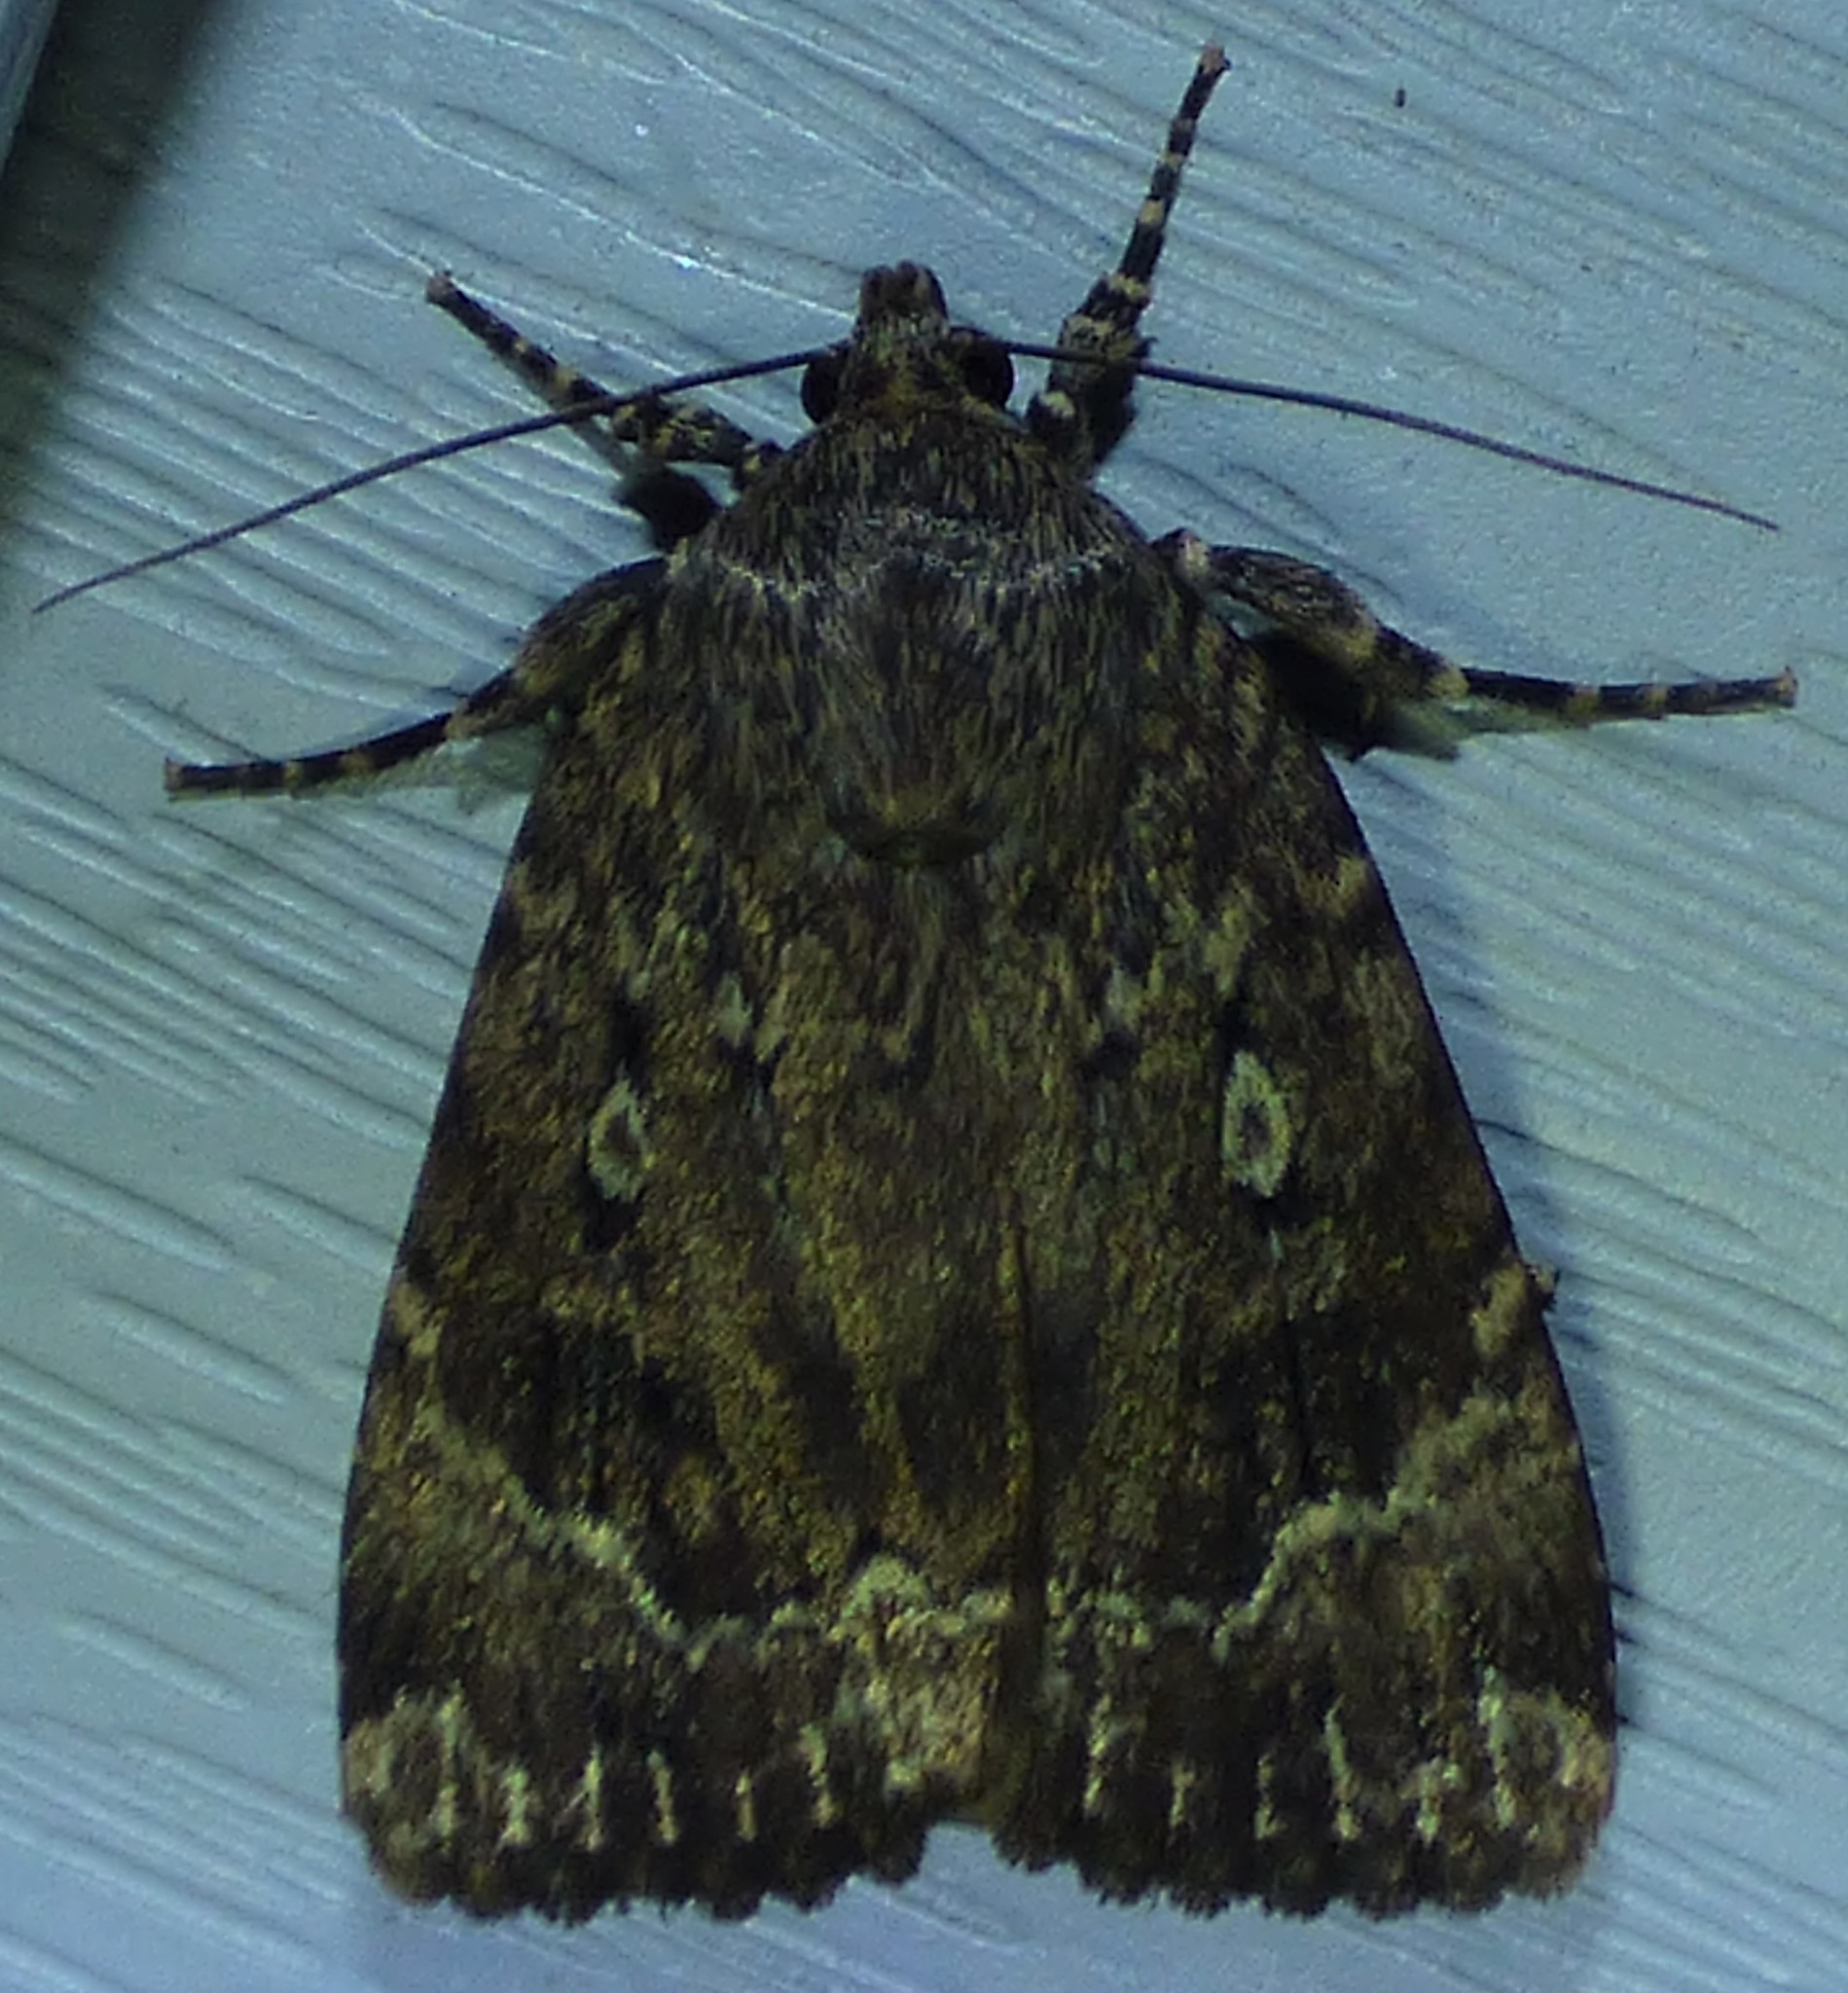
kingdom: Animalia
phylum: Arthropoda
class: Insecta
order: Lepidoptera
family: Noctuidae
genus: Amphipyra
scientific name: Amphipyra pyramidoides
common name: American copper underwing
